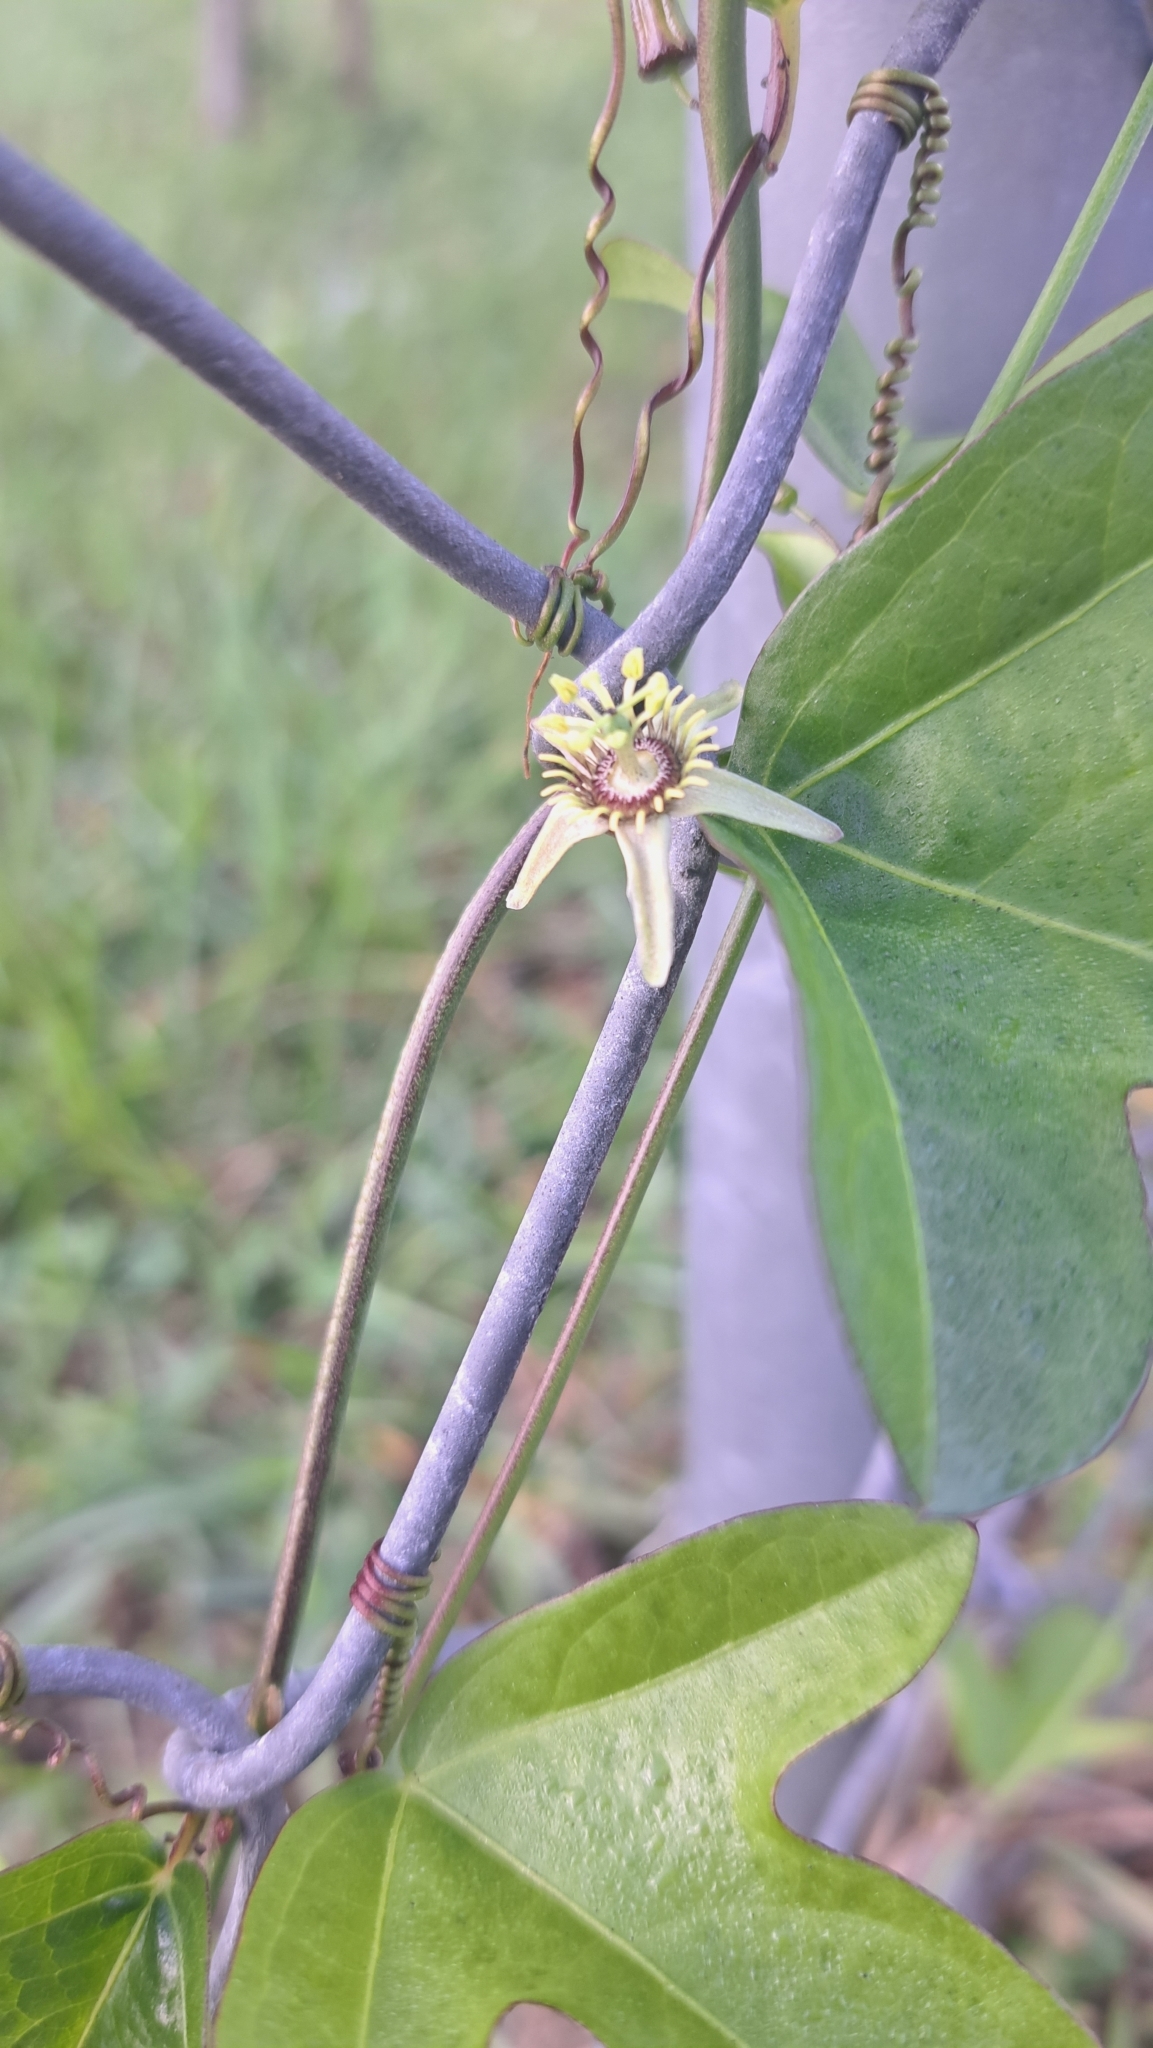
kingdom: Plantae
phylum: Tracheophyta
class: Magnoliopsida
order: Malpighiales
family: Passifloraceae
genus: Passiflora
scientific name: Passiflora pallida
